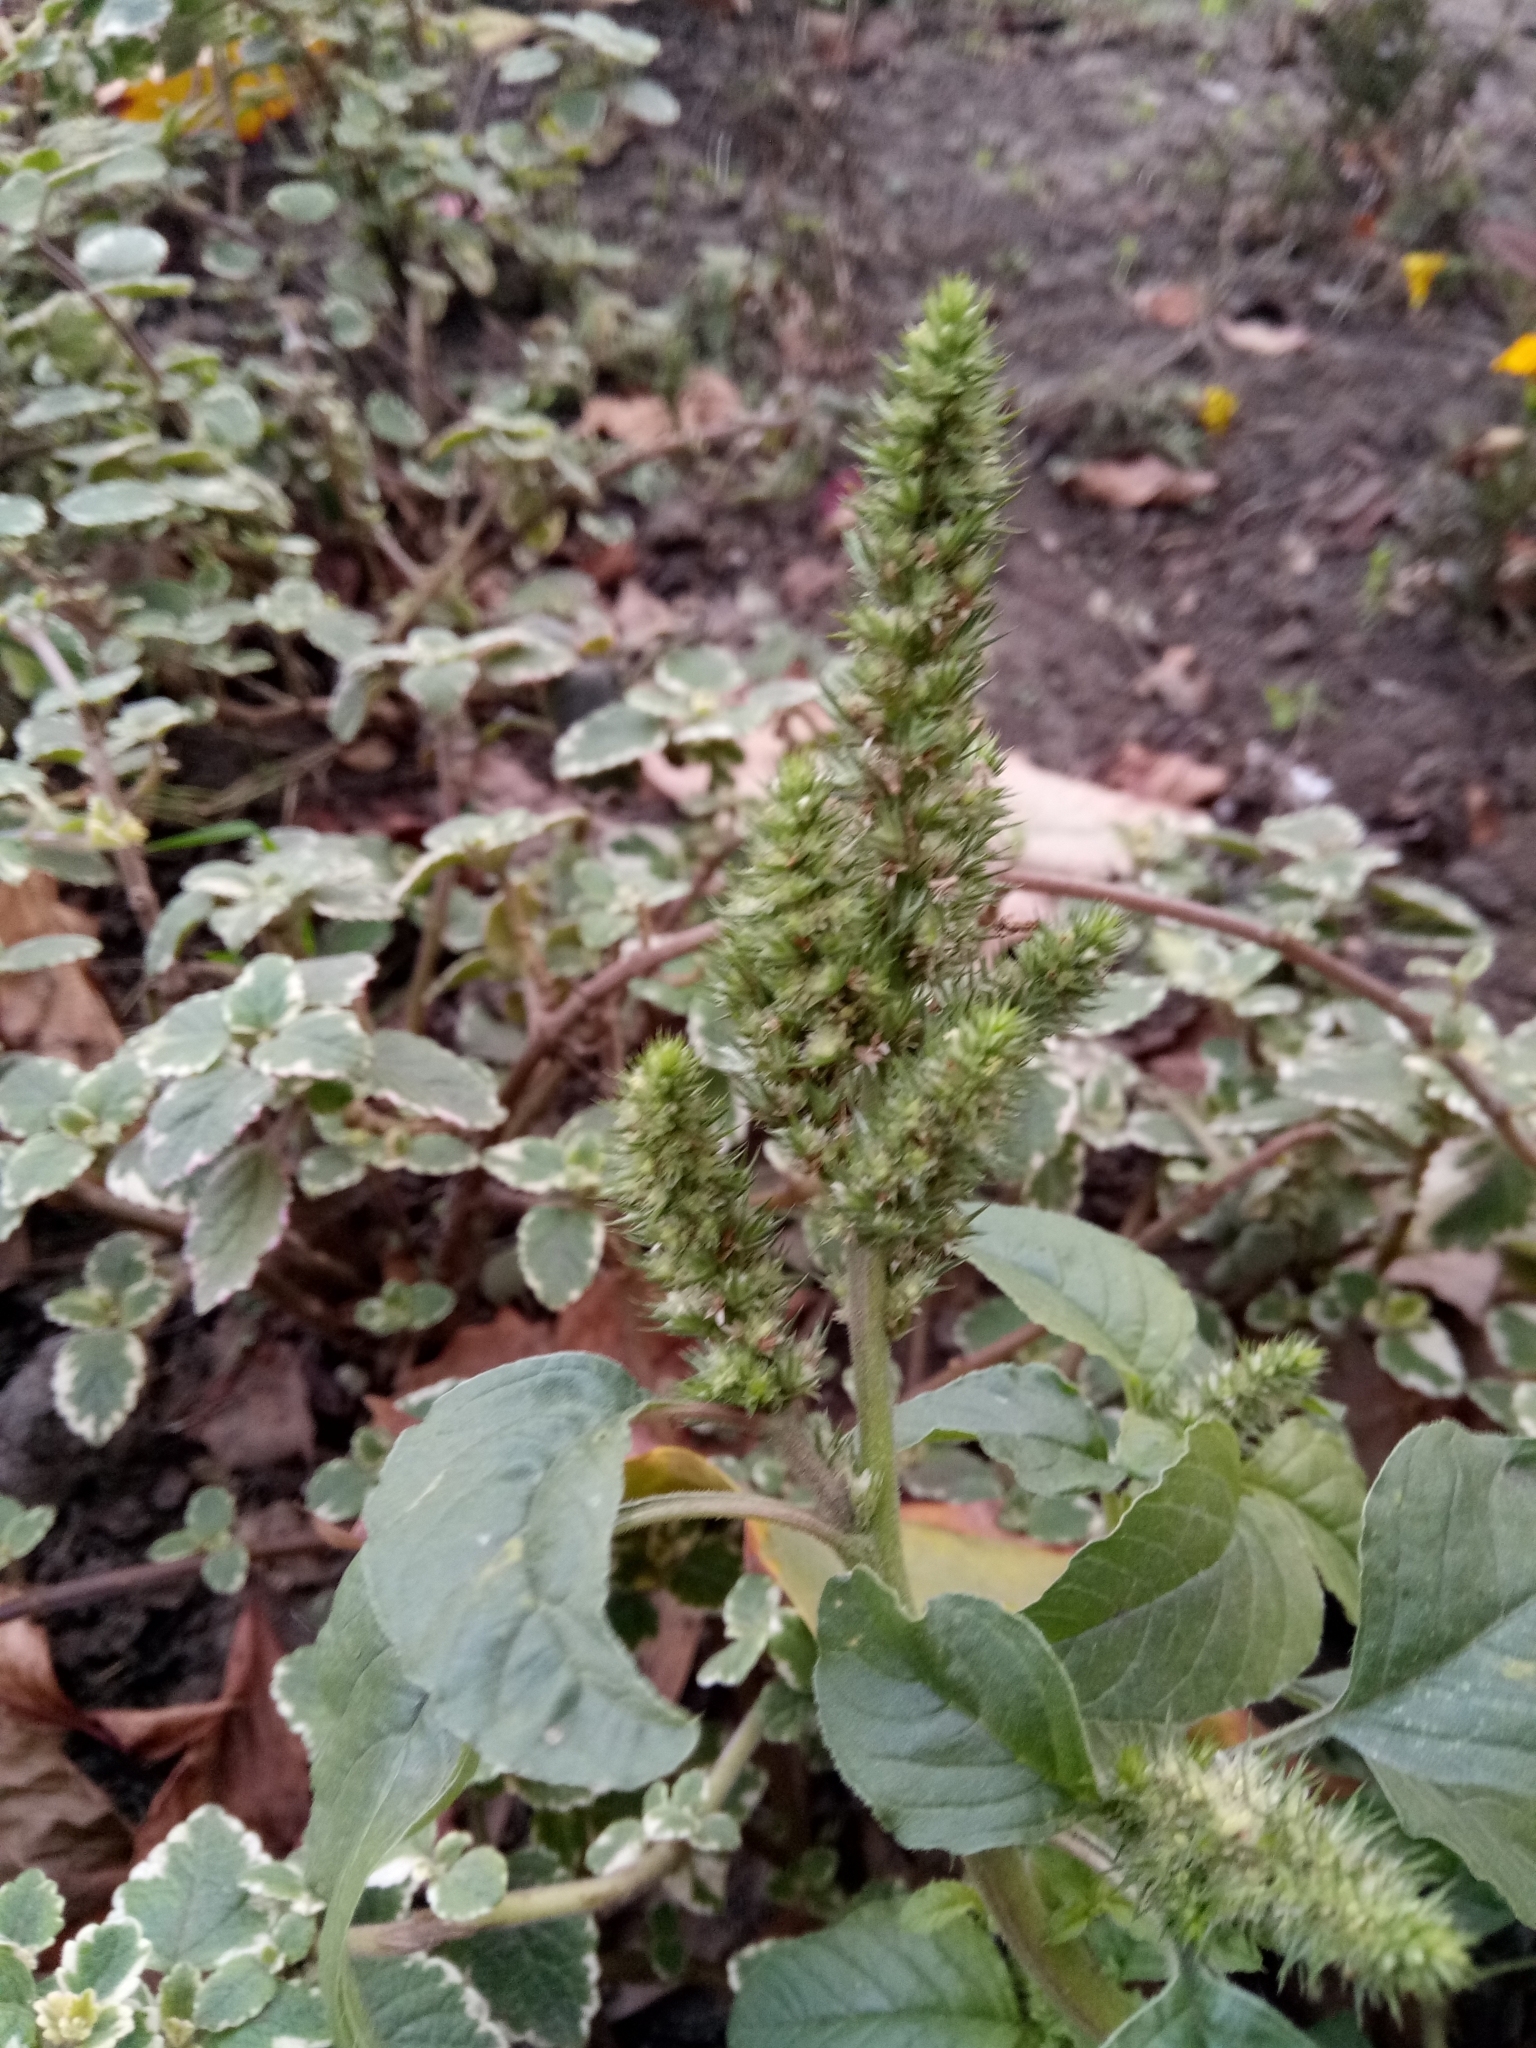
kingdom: Plantae
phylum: Tracheophyta
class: Magnoliopsida
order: Caryophyllales
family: Amaranthaceae
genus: Amaranthus
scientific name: Amaranthus retroflexus
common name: Redroot amaranth
